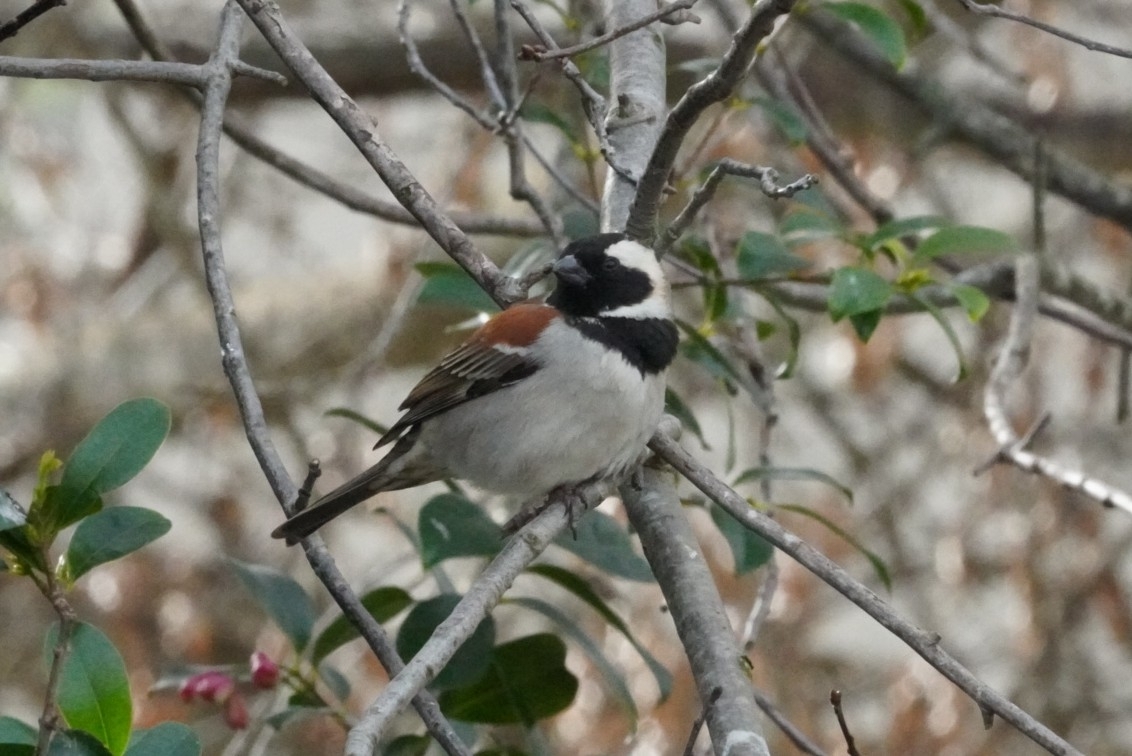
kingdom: Animalia
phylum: Chordata
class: Aves
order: Passeriformes
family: Passeridae
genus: Passer
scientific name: Passer melanurus
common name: Cape sparrow
